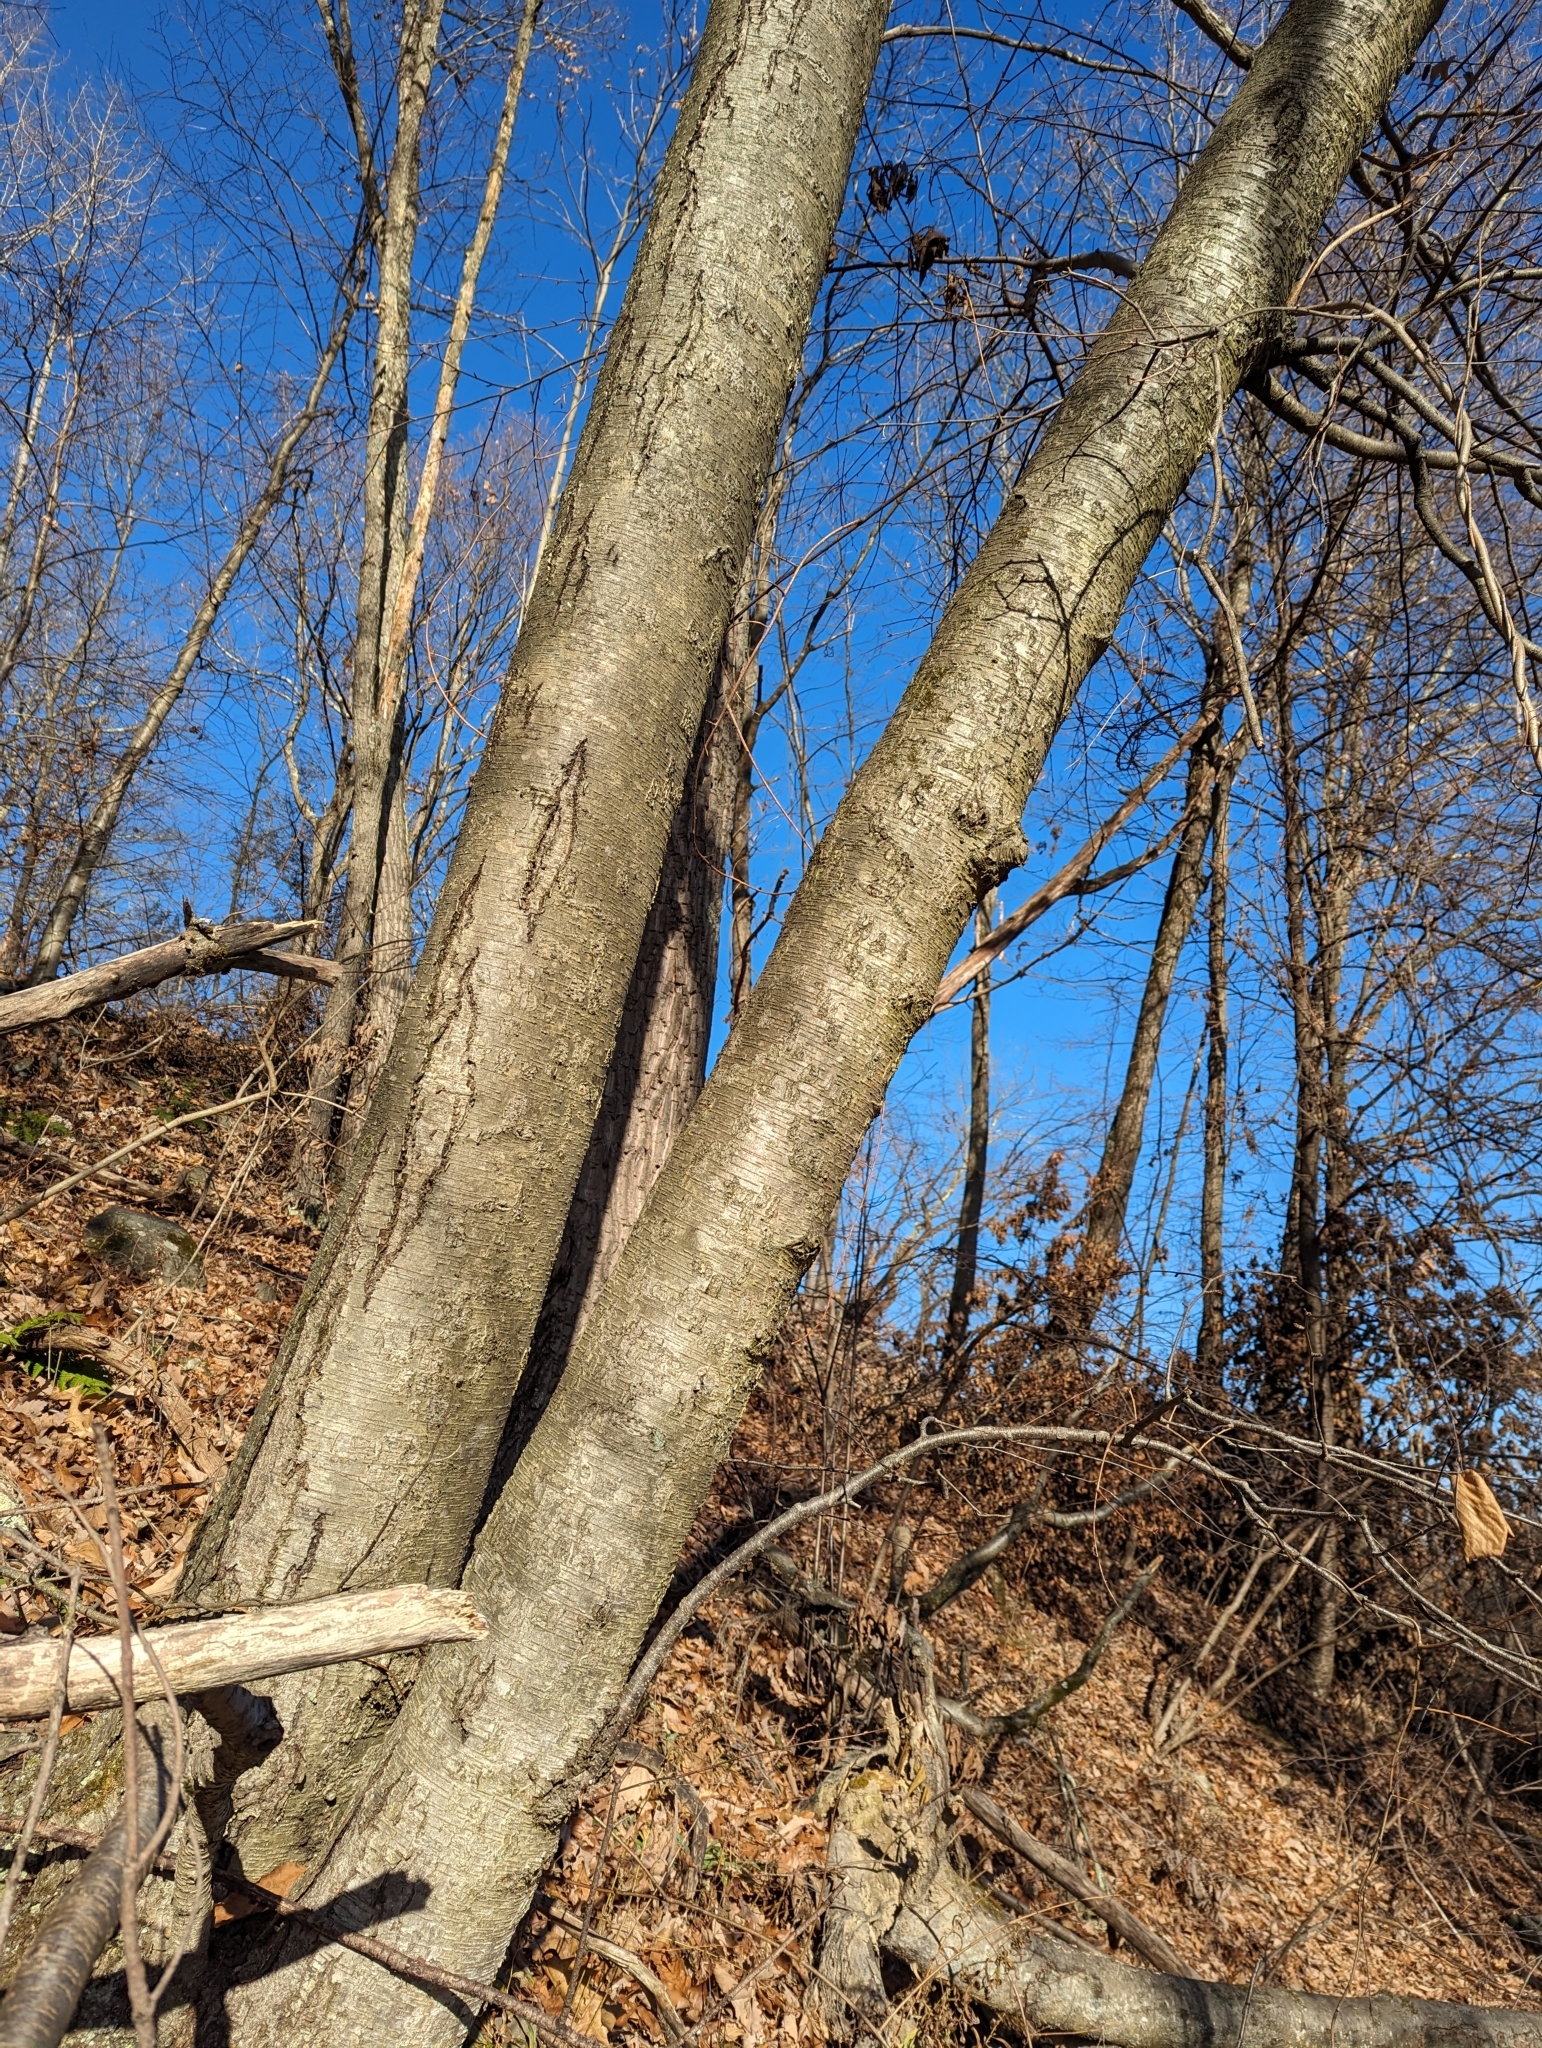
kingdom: Plantae
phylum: Tracheophyta
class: Magnoliopsida
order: Fagales
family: Betulaceae
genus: Betula
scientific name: Betula lenta
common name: Black birch
